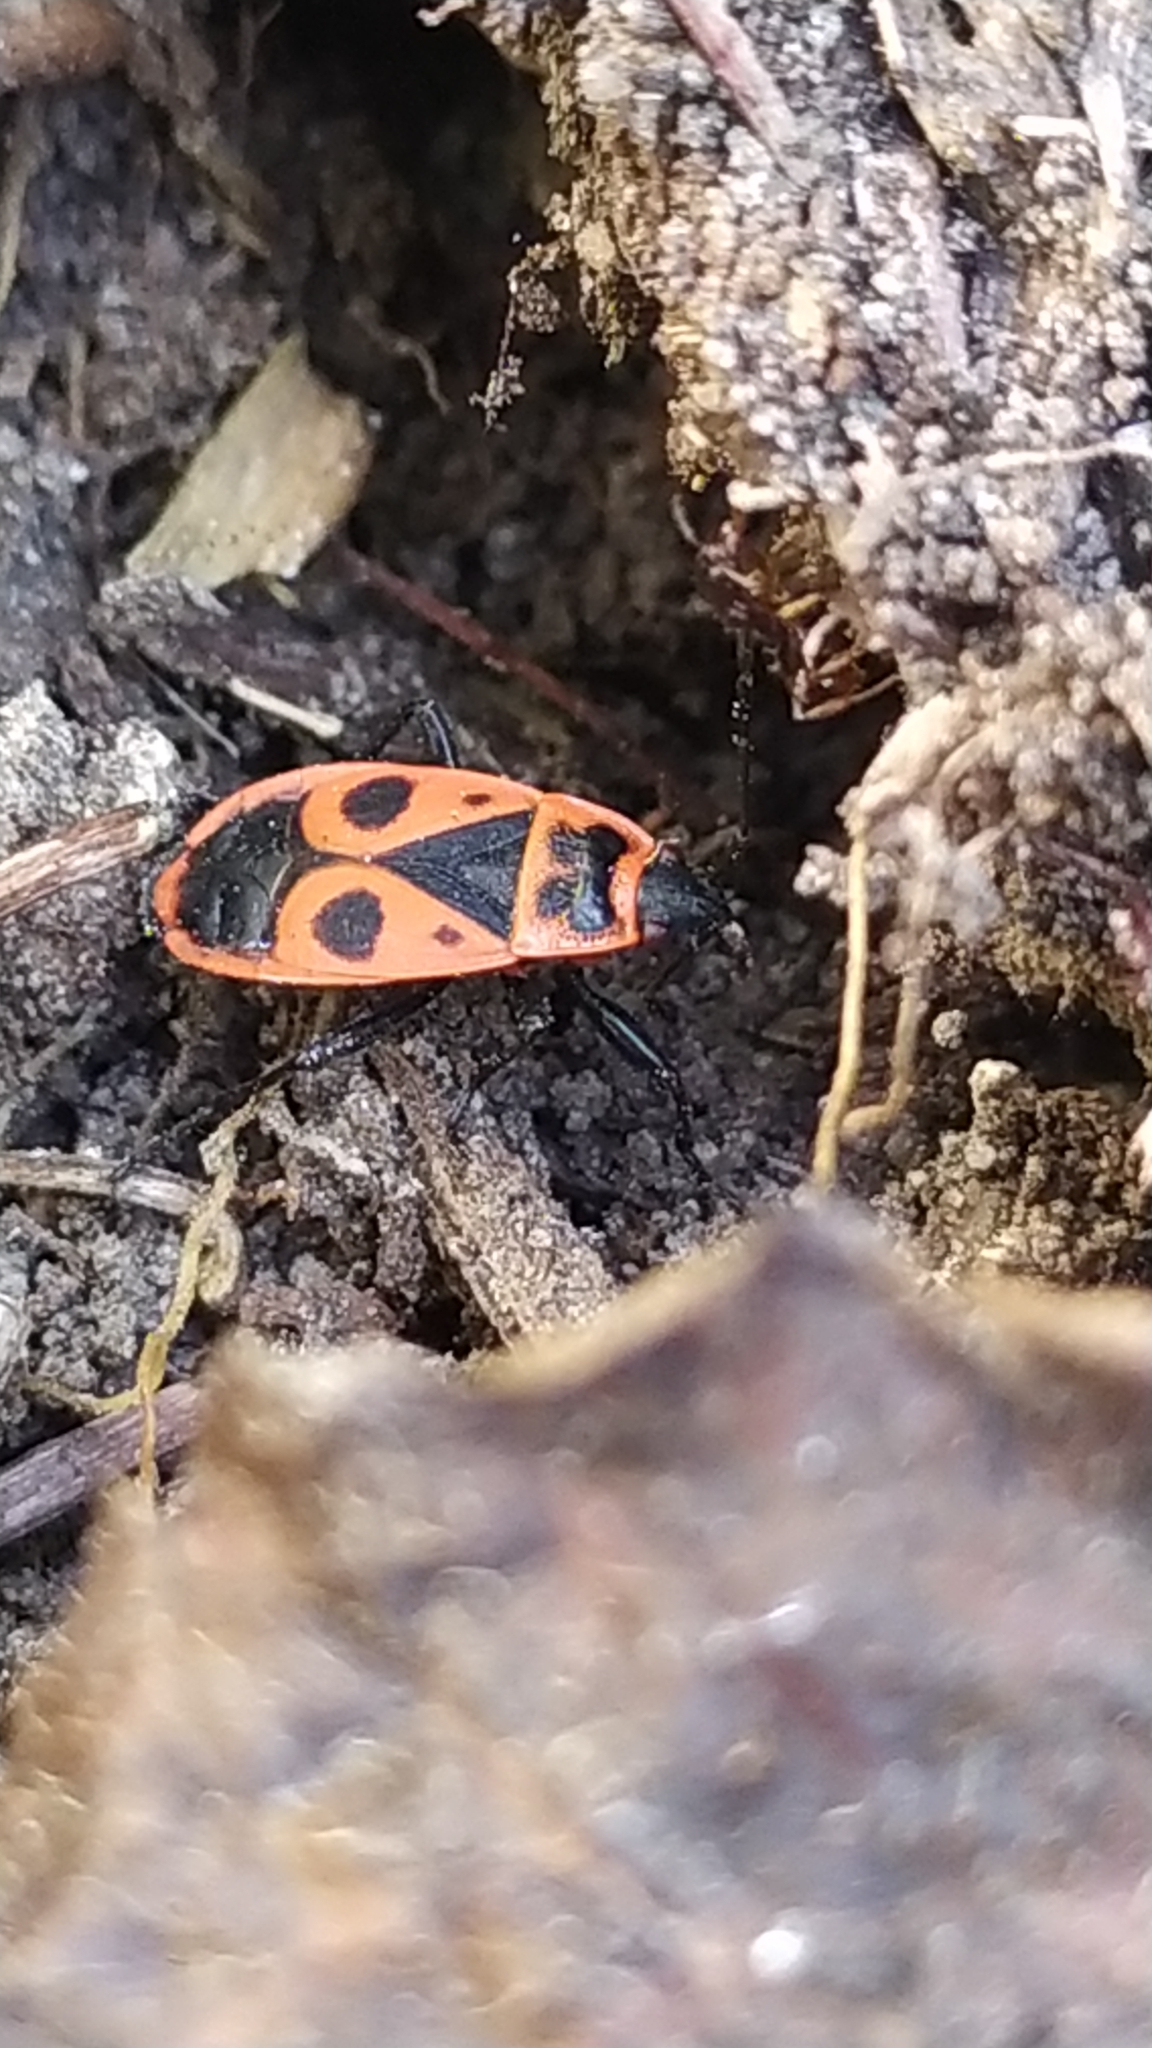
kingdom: Animalia
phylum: Arthropoda
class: Insecta
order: Hemiptera
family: Pyrrhocoridae
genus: Pyrrhocoris
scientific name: Pyrrhocoris apterus
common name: Firebug
